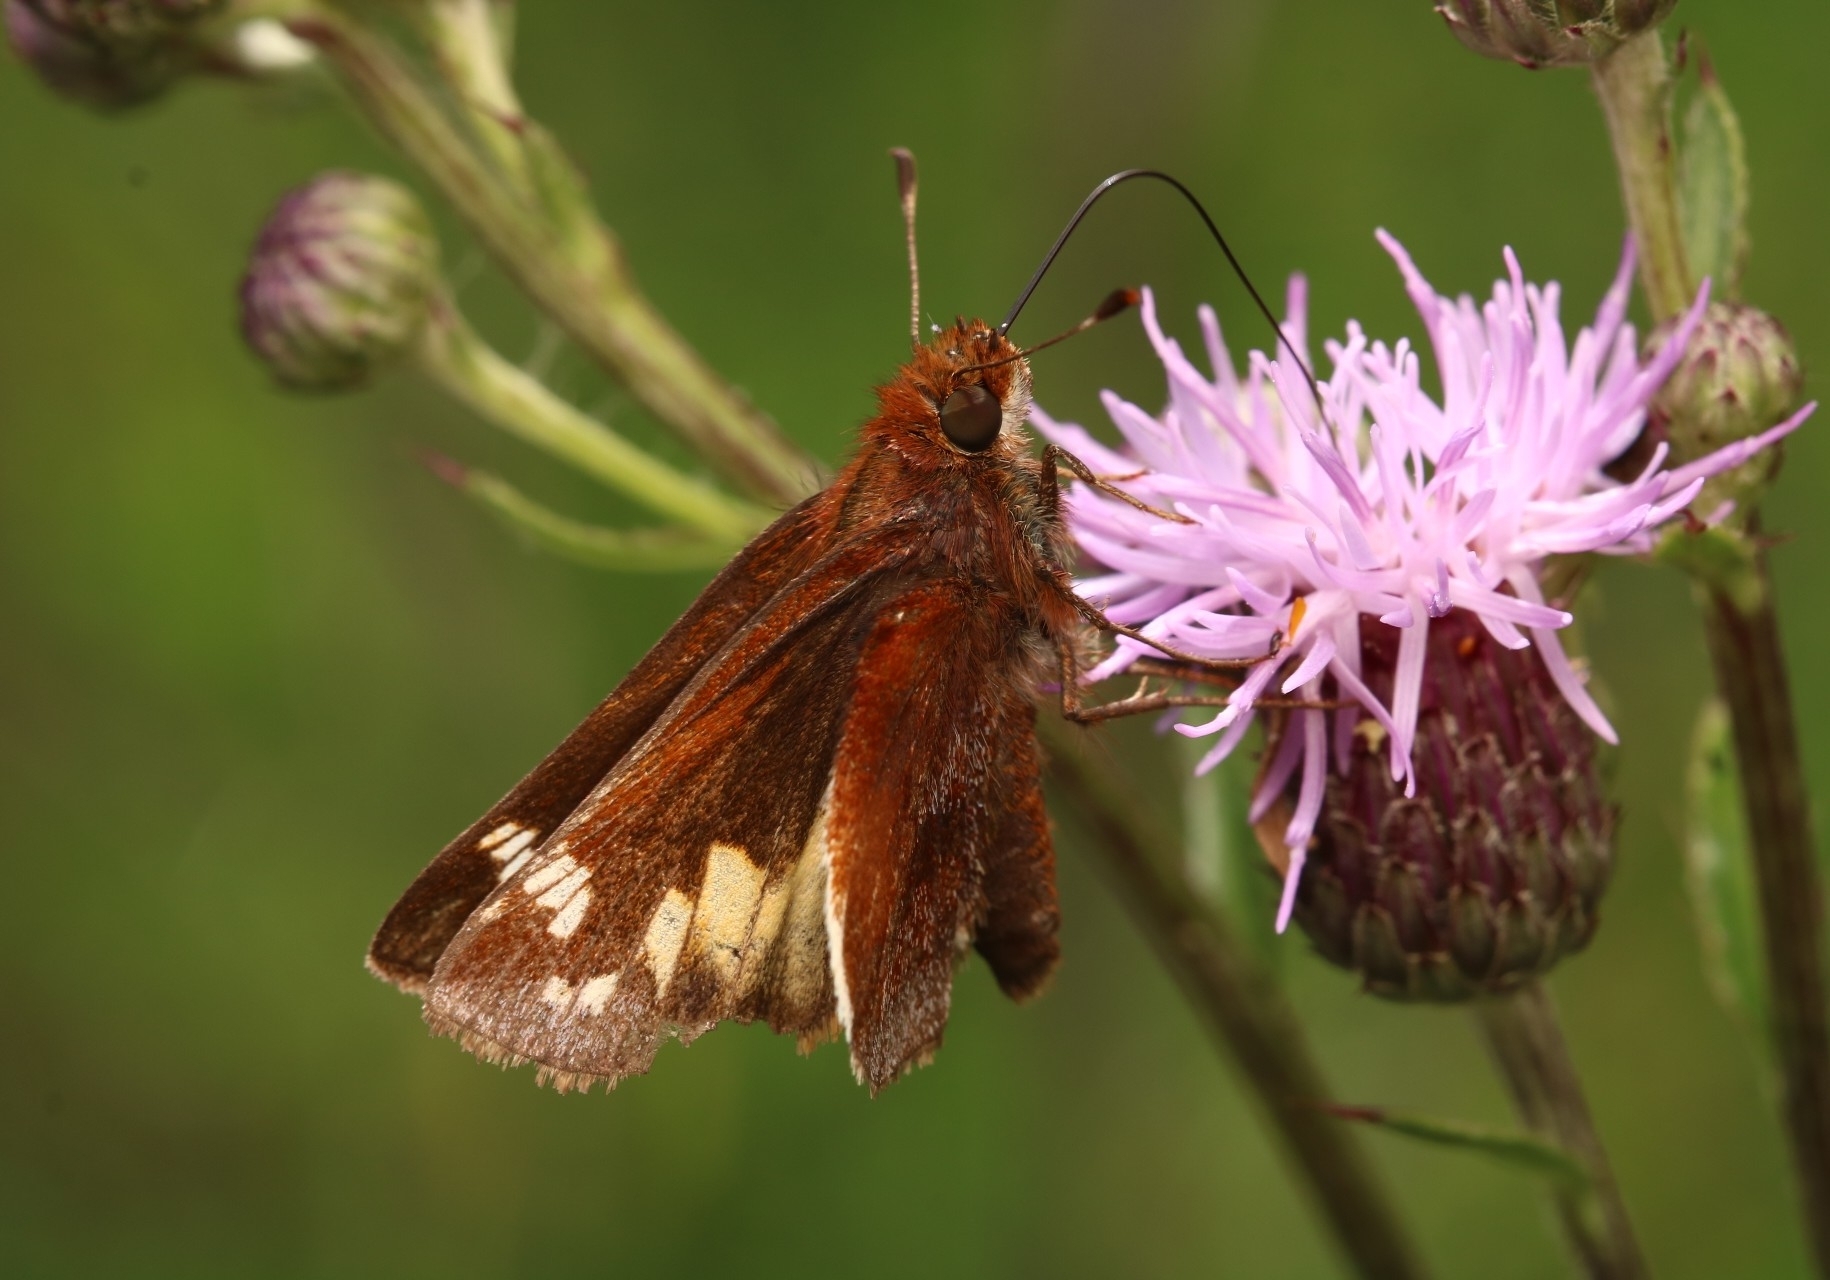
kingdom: Animalia
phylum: Arthropoda
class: Insecta
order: Lepidoptera
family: Hesperiidae
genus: Lon
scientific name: Lon zabulon
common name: Zabulon skipper
